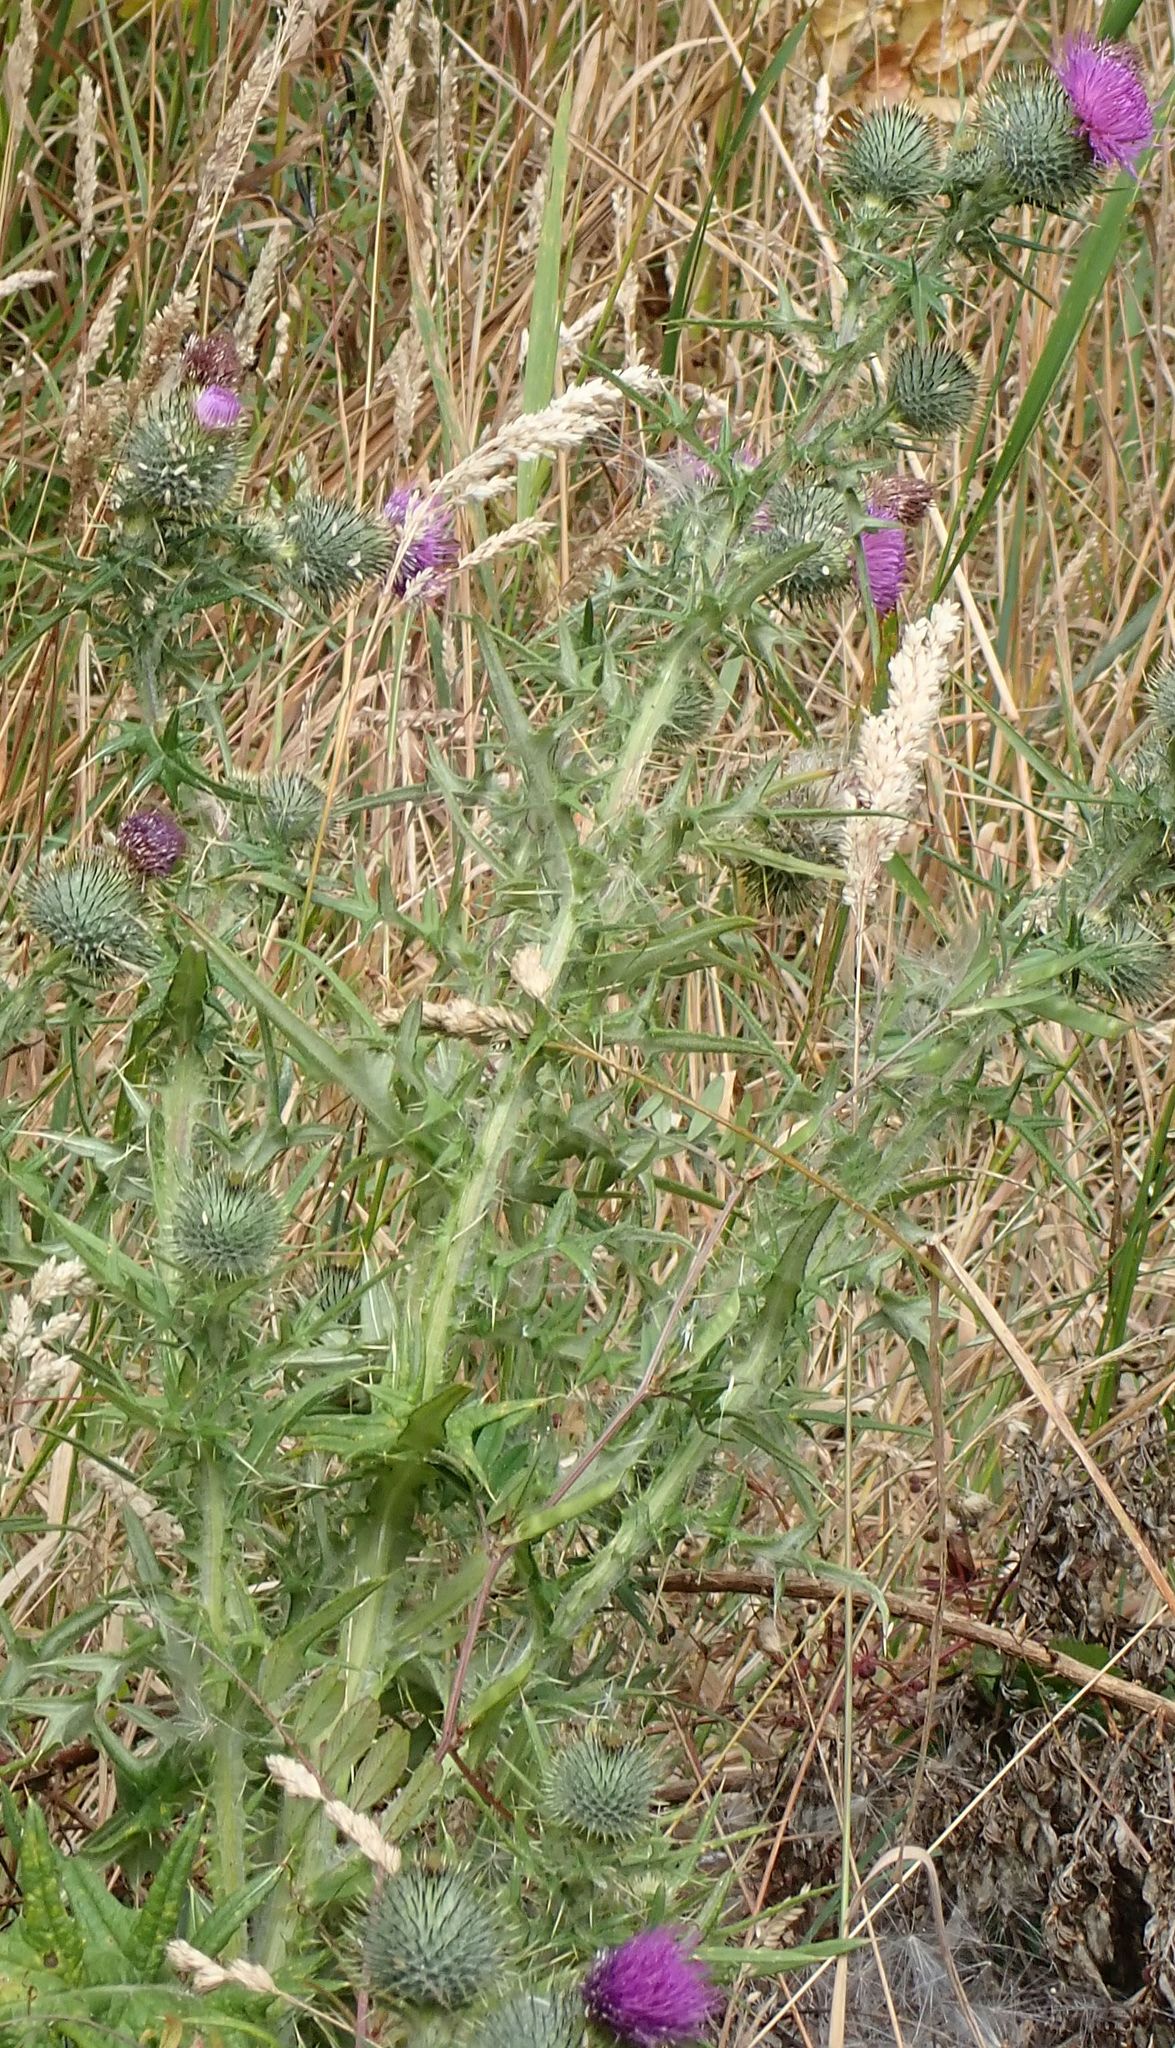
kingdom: Plantae
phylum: Tracheophyta
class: Magnoliopsida
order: Asterales
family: Asteraceae
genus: Cirsium
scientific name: Cirsium vulgare
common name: Bull thistle
